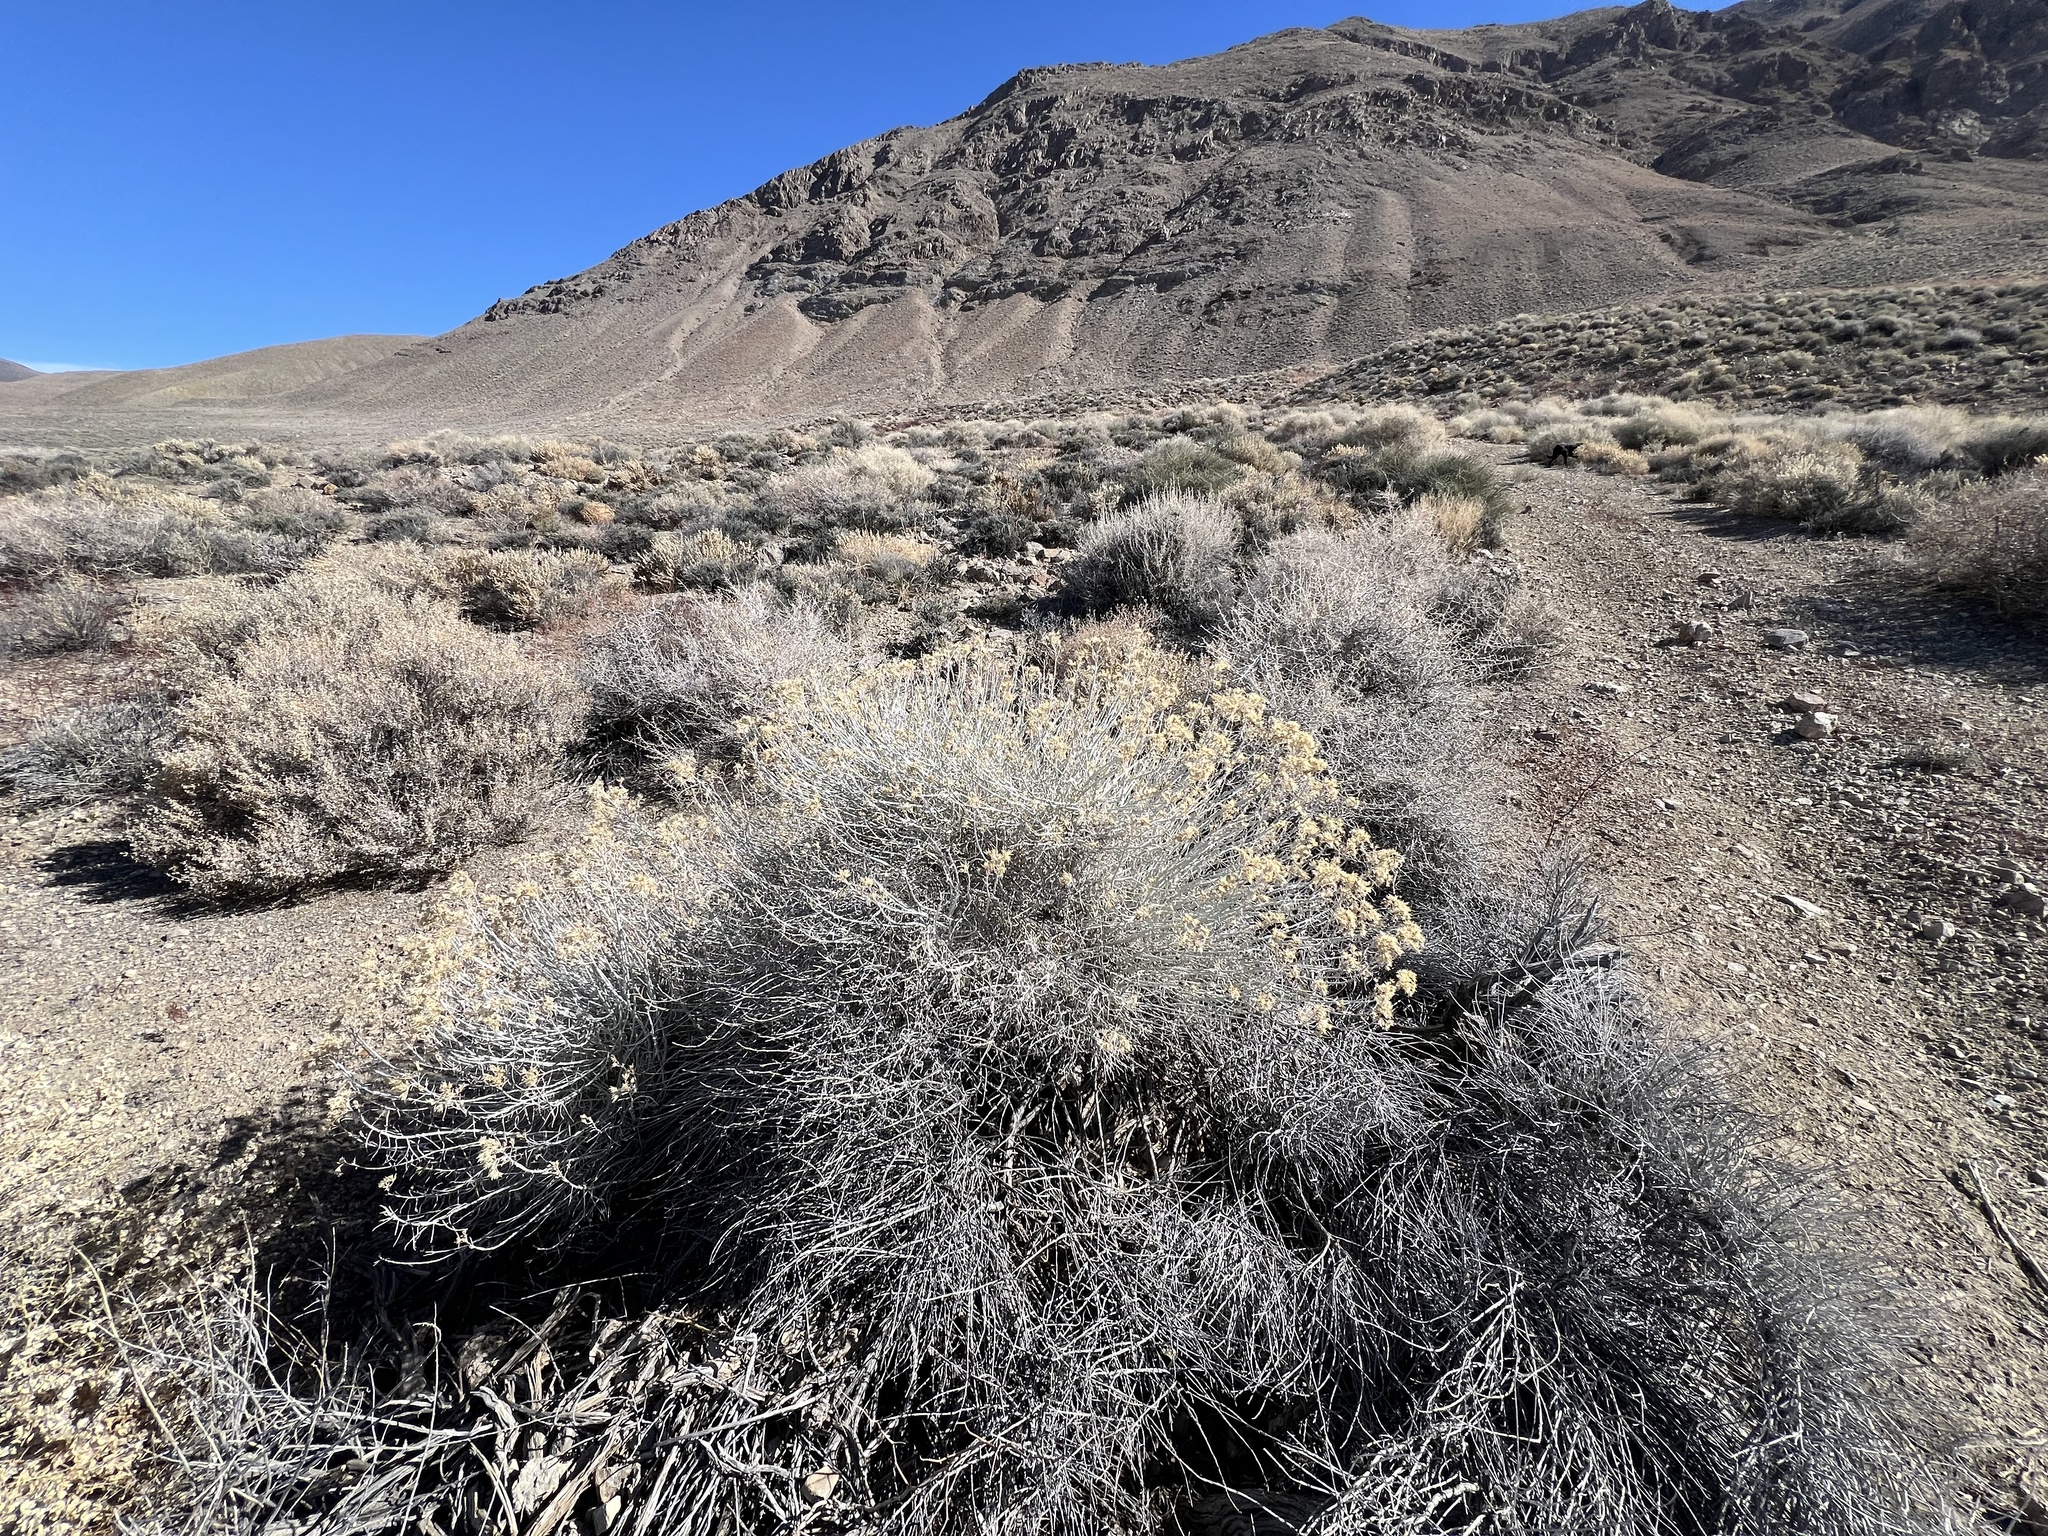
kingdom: Plantae
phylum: Tracheophyta
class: Magnoliopsida
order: Asterales
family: Asteraceae
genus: Ericameria
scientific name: Ericameria nauseosa
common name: Rubber rabbitbrush
